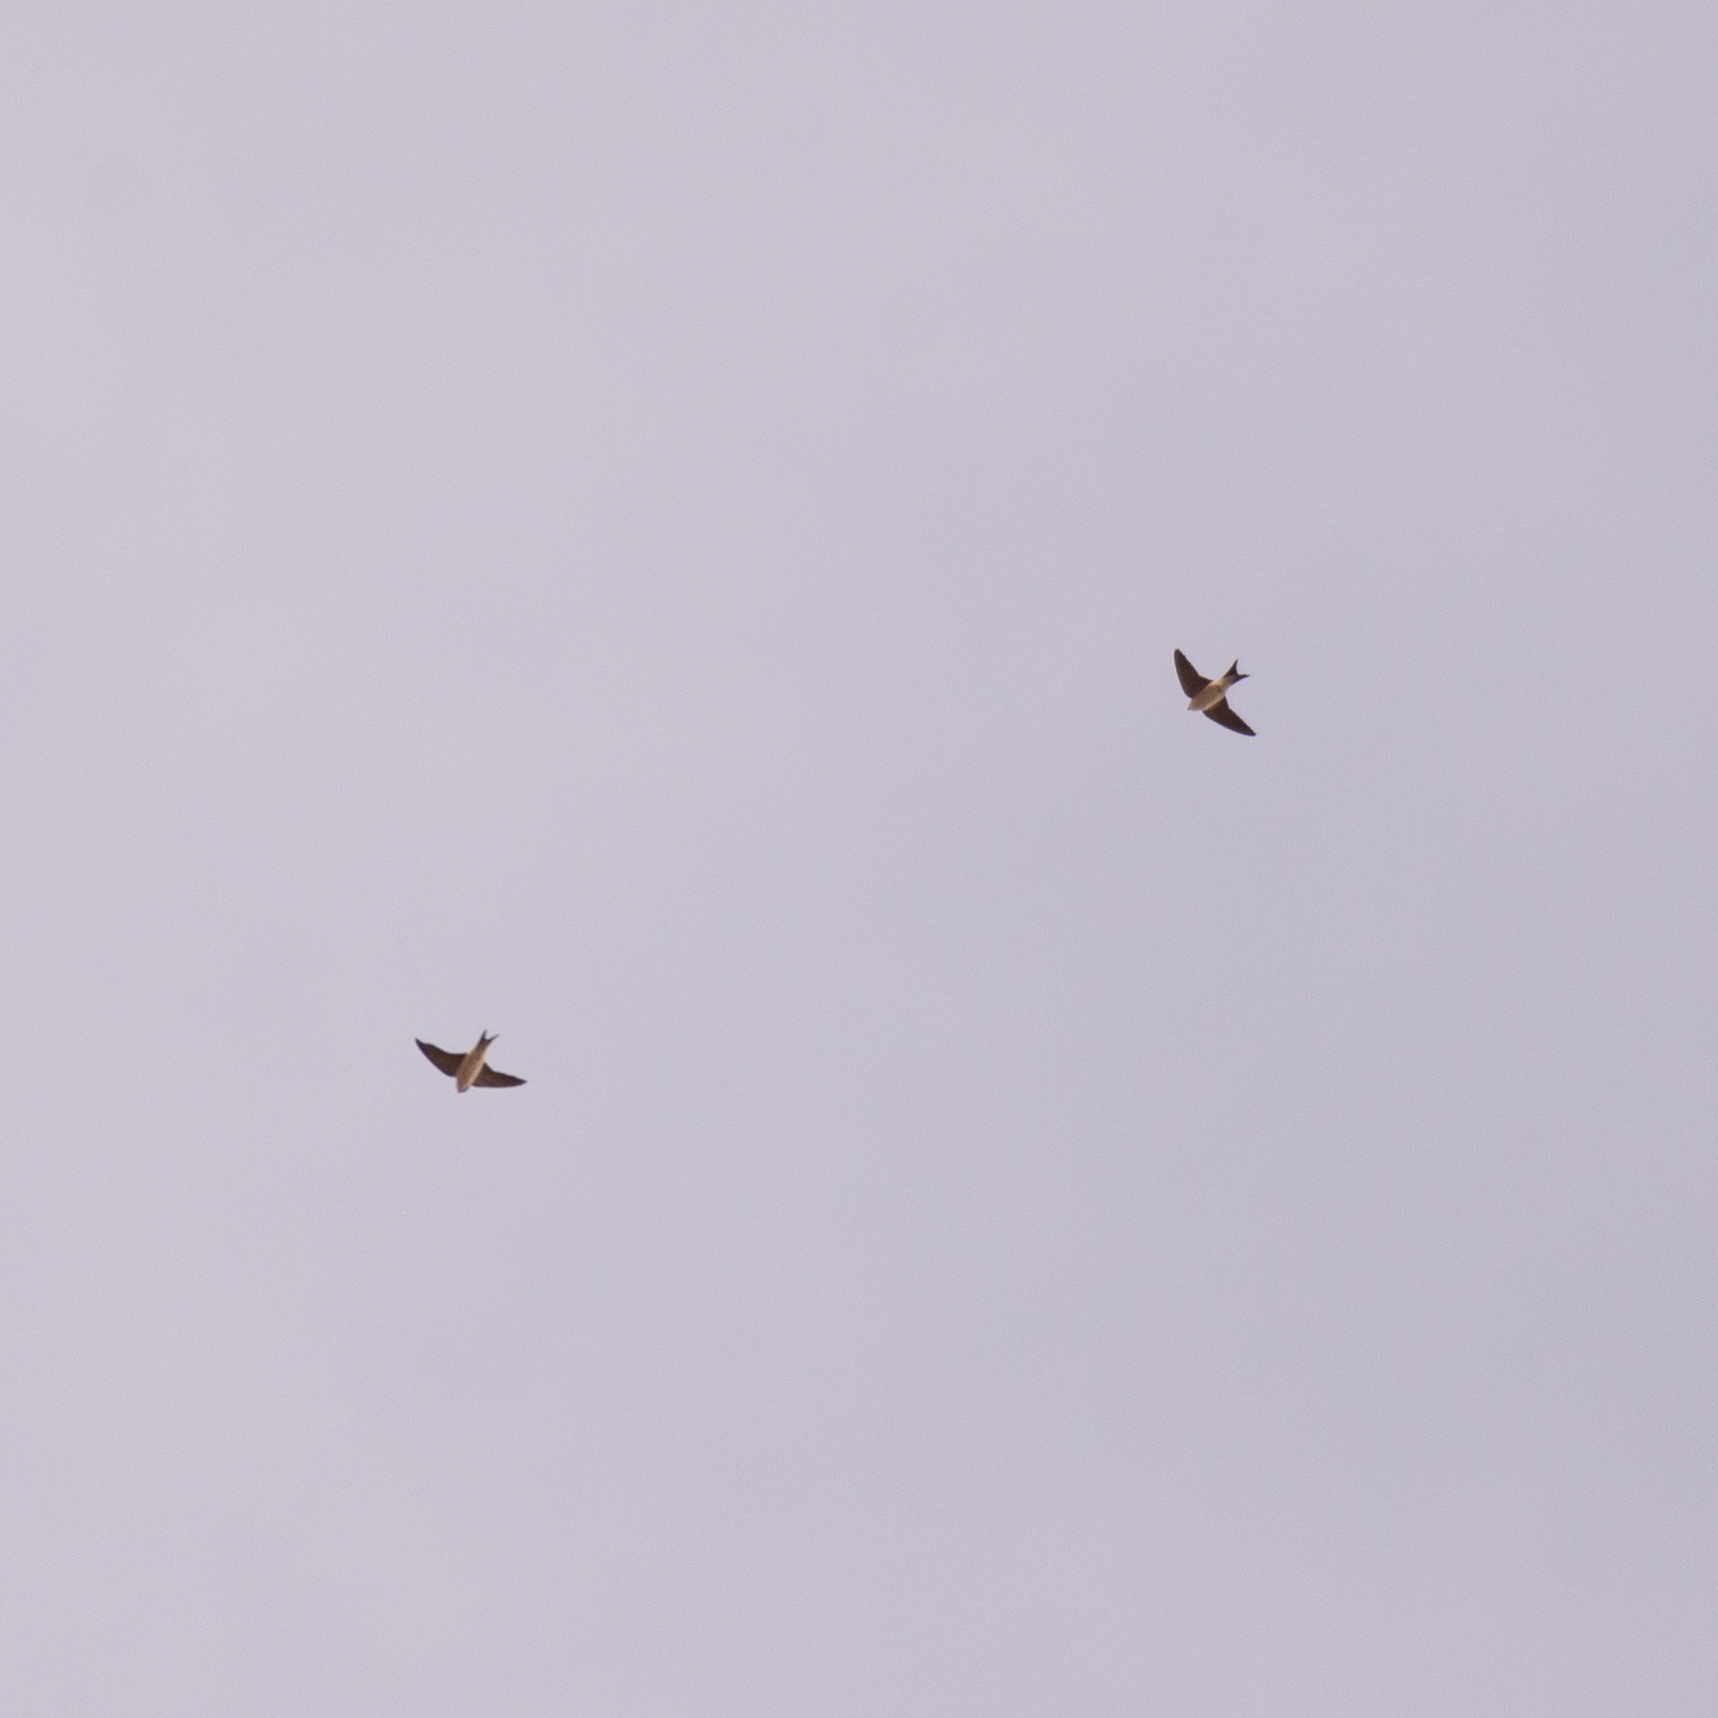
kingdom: Animalia
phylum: Chordata
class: Aves
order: Passeriformes
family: Hirundinidae
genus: Delichon
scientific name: Delichon urbicum
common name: Common house martin
